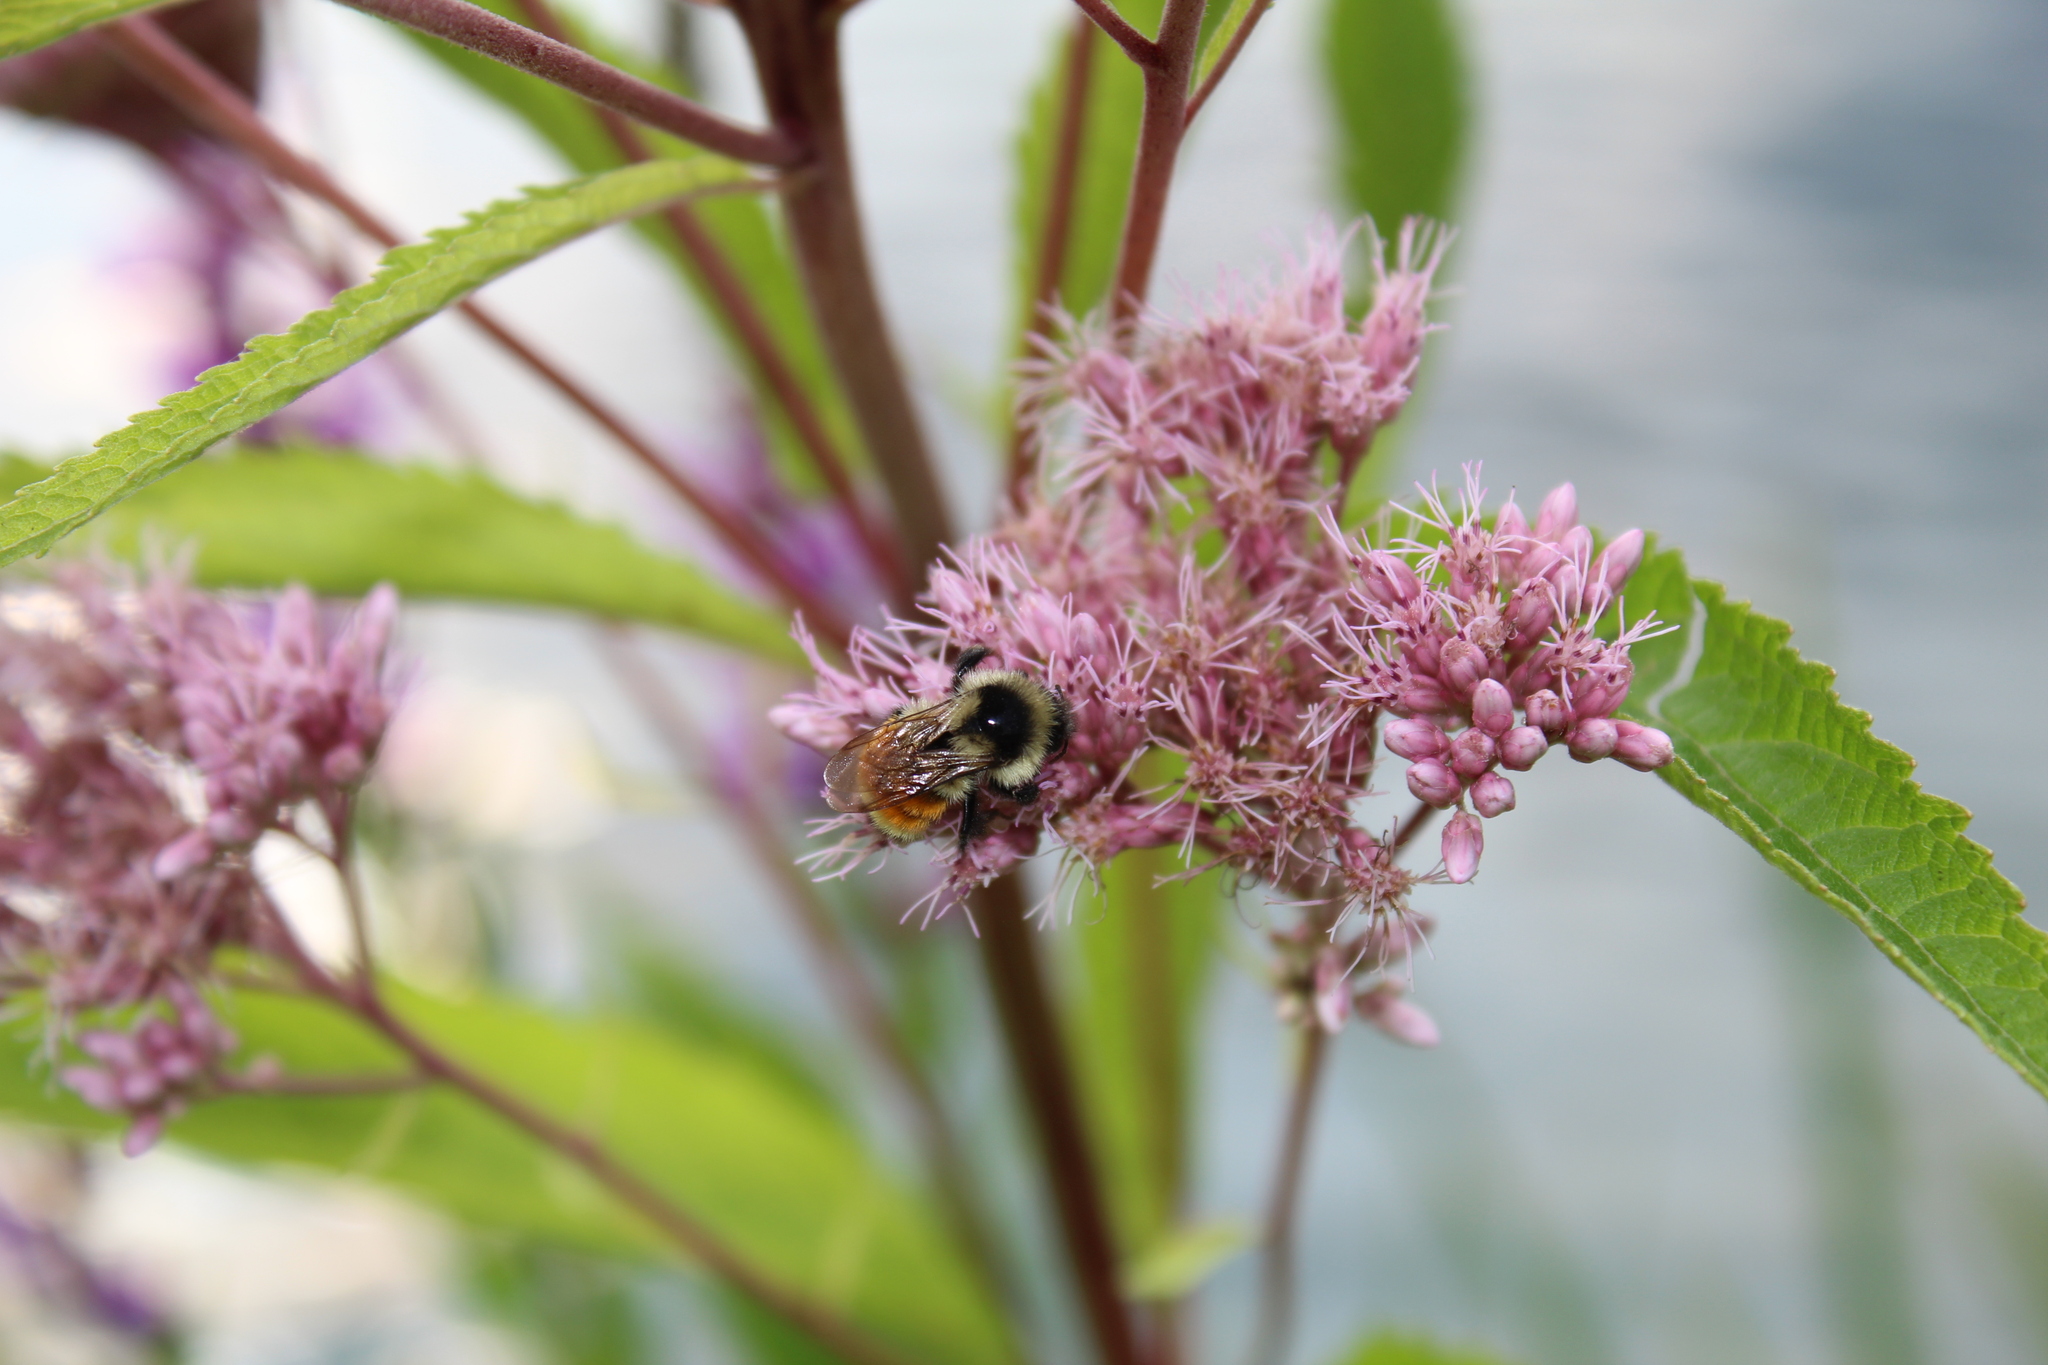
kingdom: Animalia
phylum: Arthropoda
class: Insecta
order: Hymenoptera
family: Apidae
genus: Bombus
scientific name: Bombus ternarius
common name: Tri-colored bumble bee
